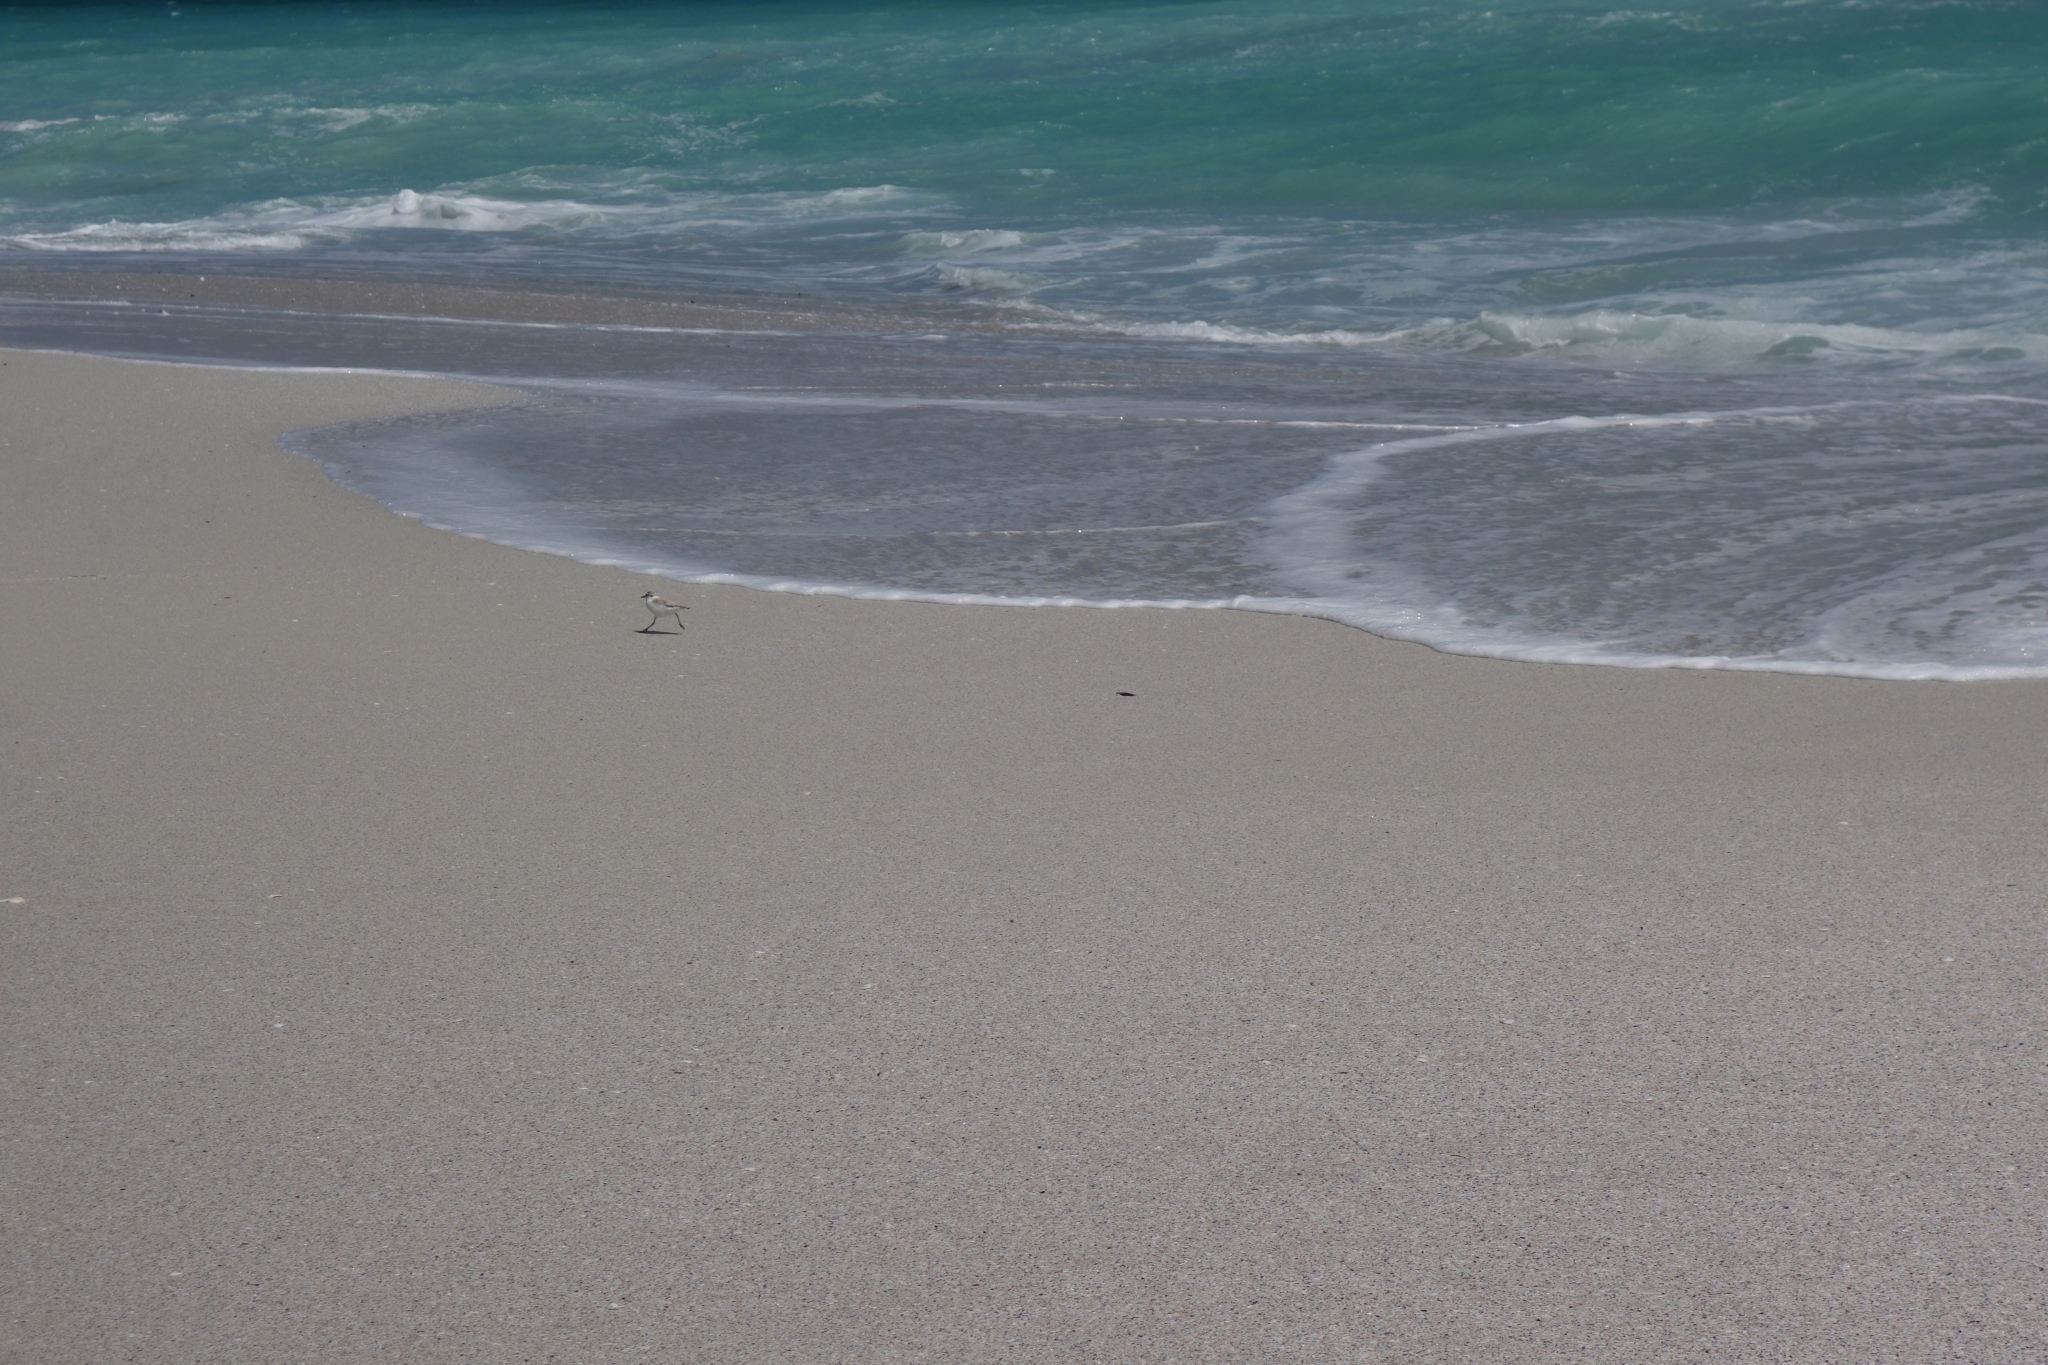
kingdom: Animalia
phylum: Chordata
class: Aves
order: Charadriiformes
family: Charadriidae
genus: Anarhynchus
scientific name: Anarhynchus
